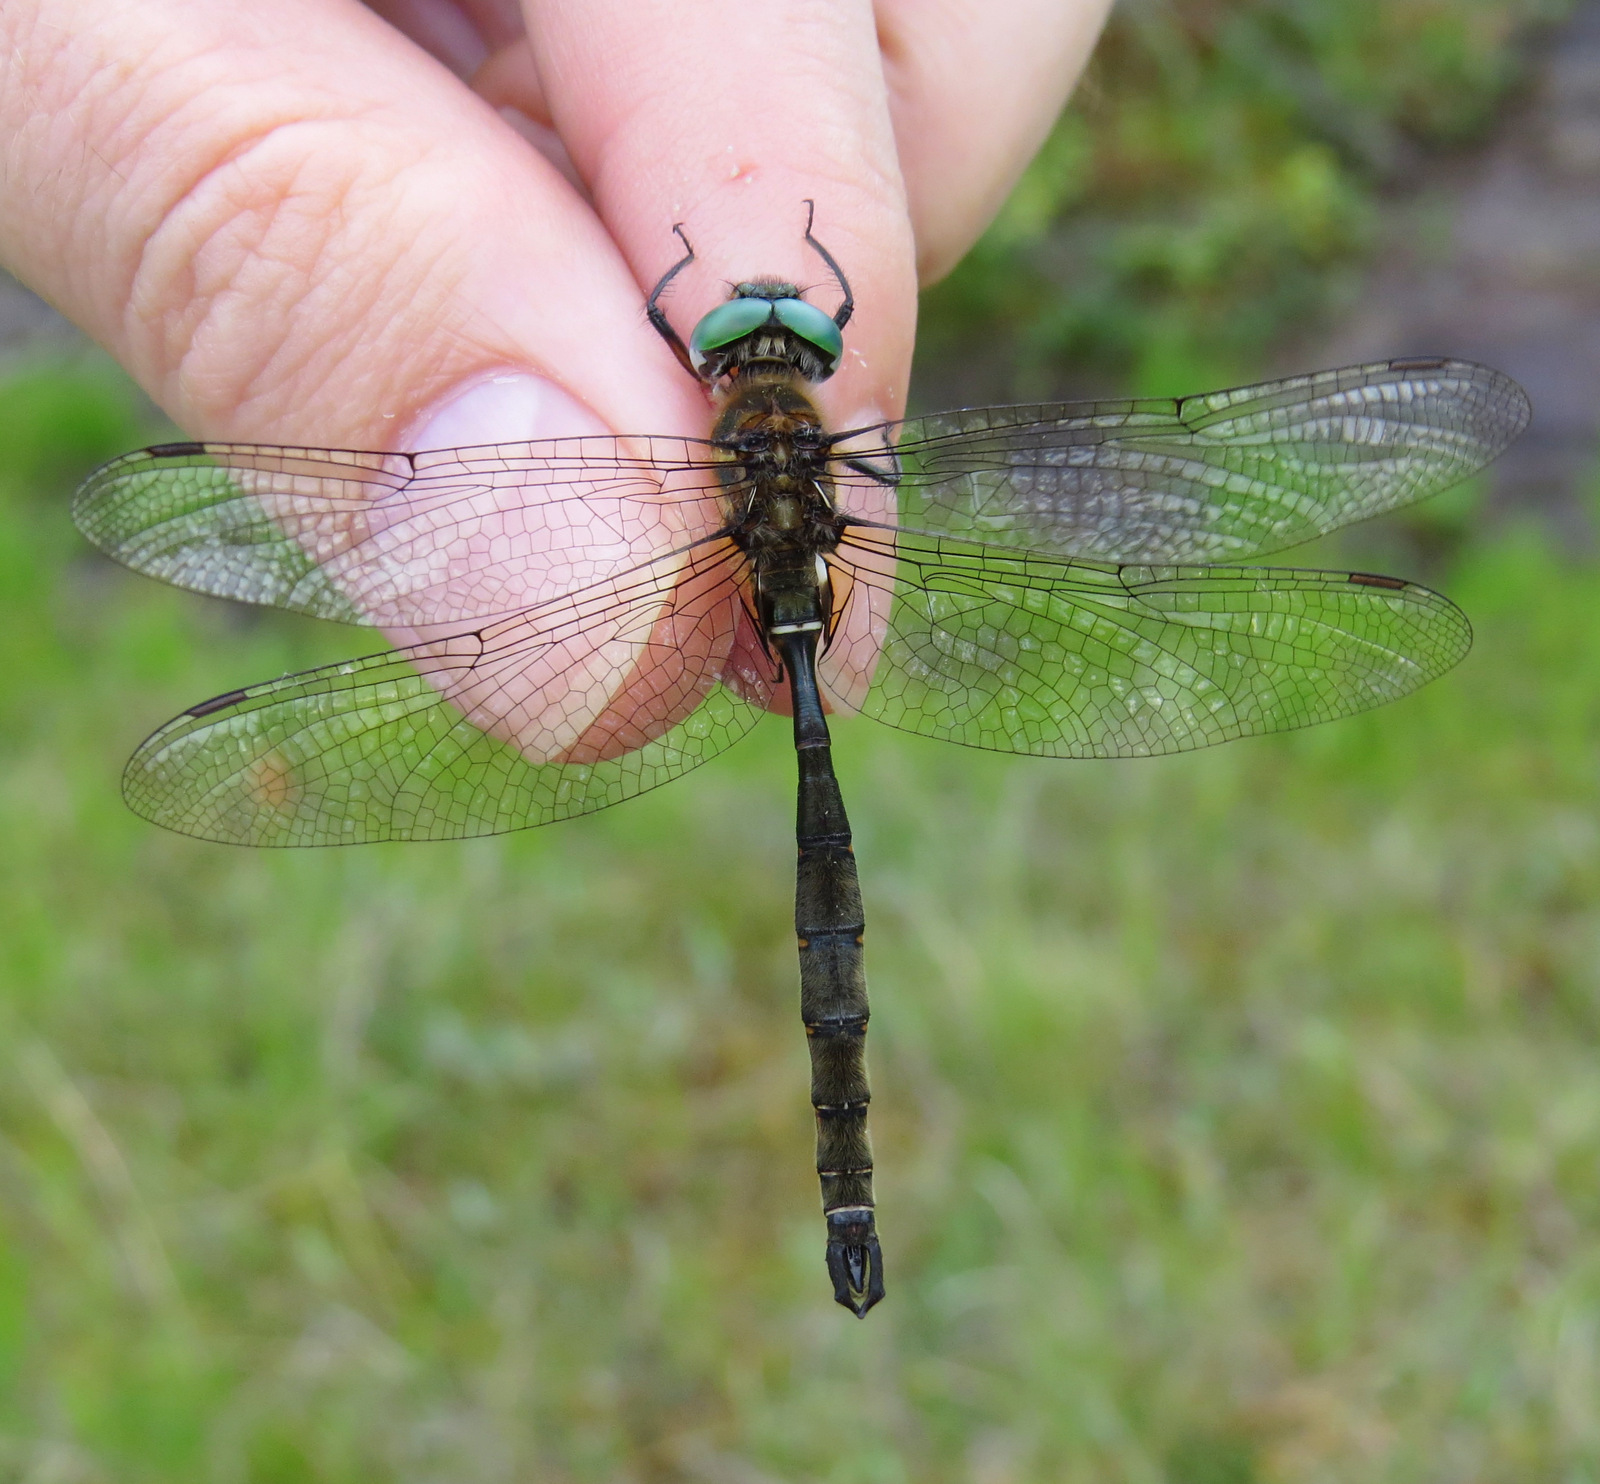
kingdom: Animalia
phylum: Arthropoda
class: Insecta
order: Odonata
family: Corduliidae
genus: Somatochlora
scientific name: Somatochlora brevicincta
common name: Quebec emerald
